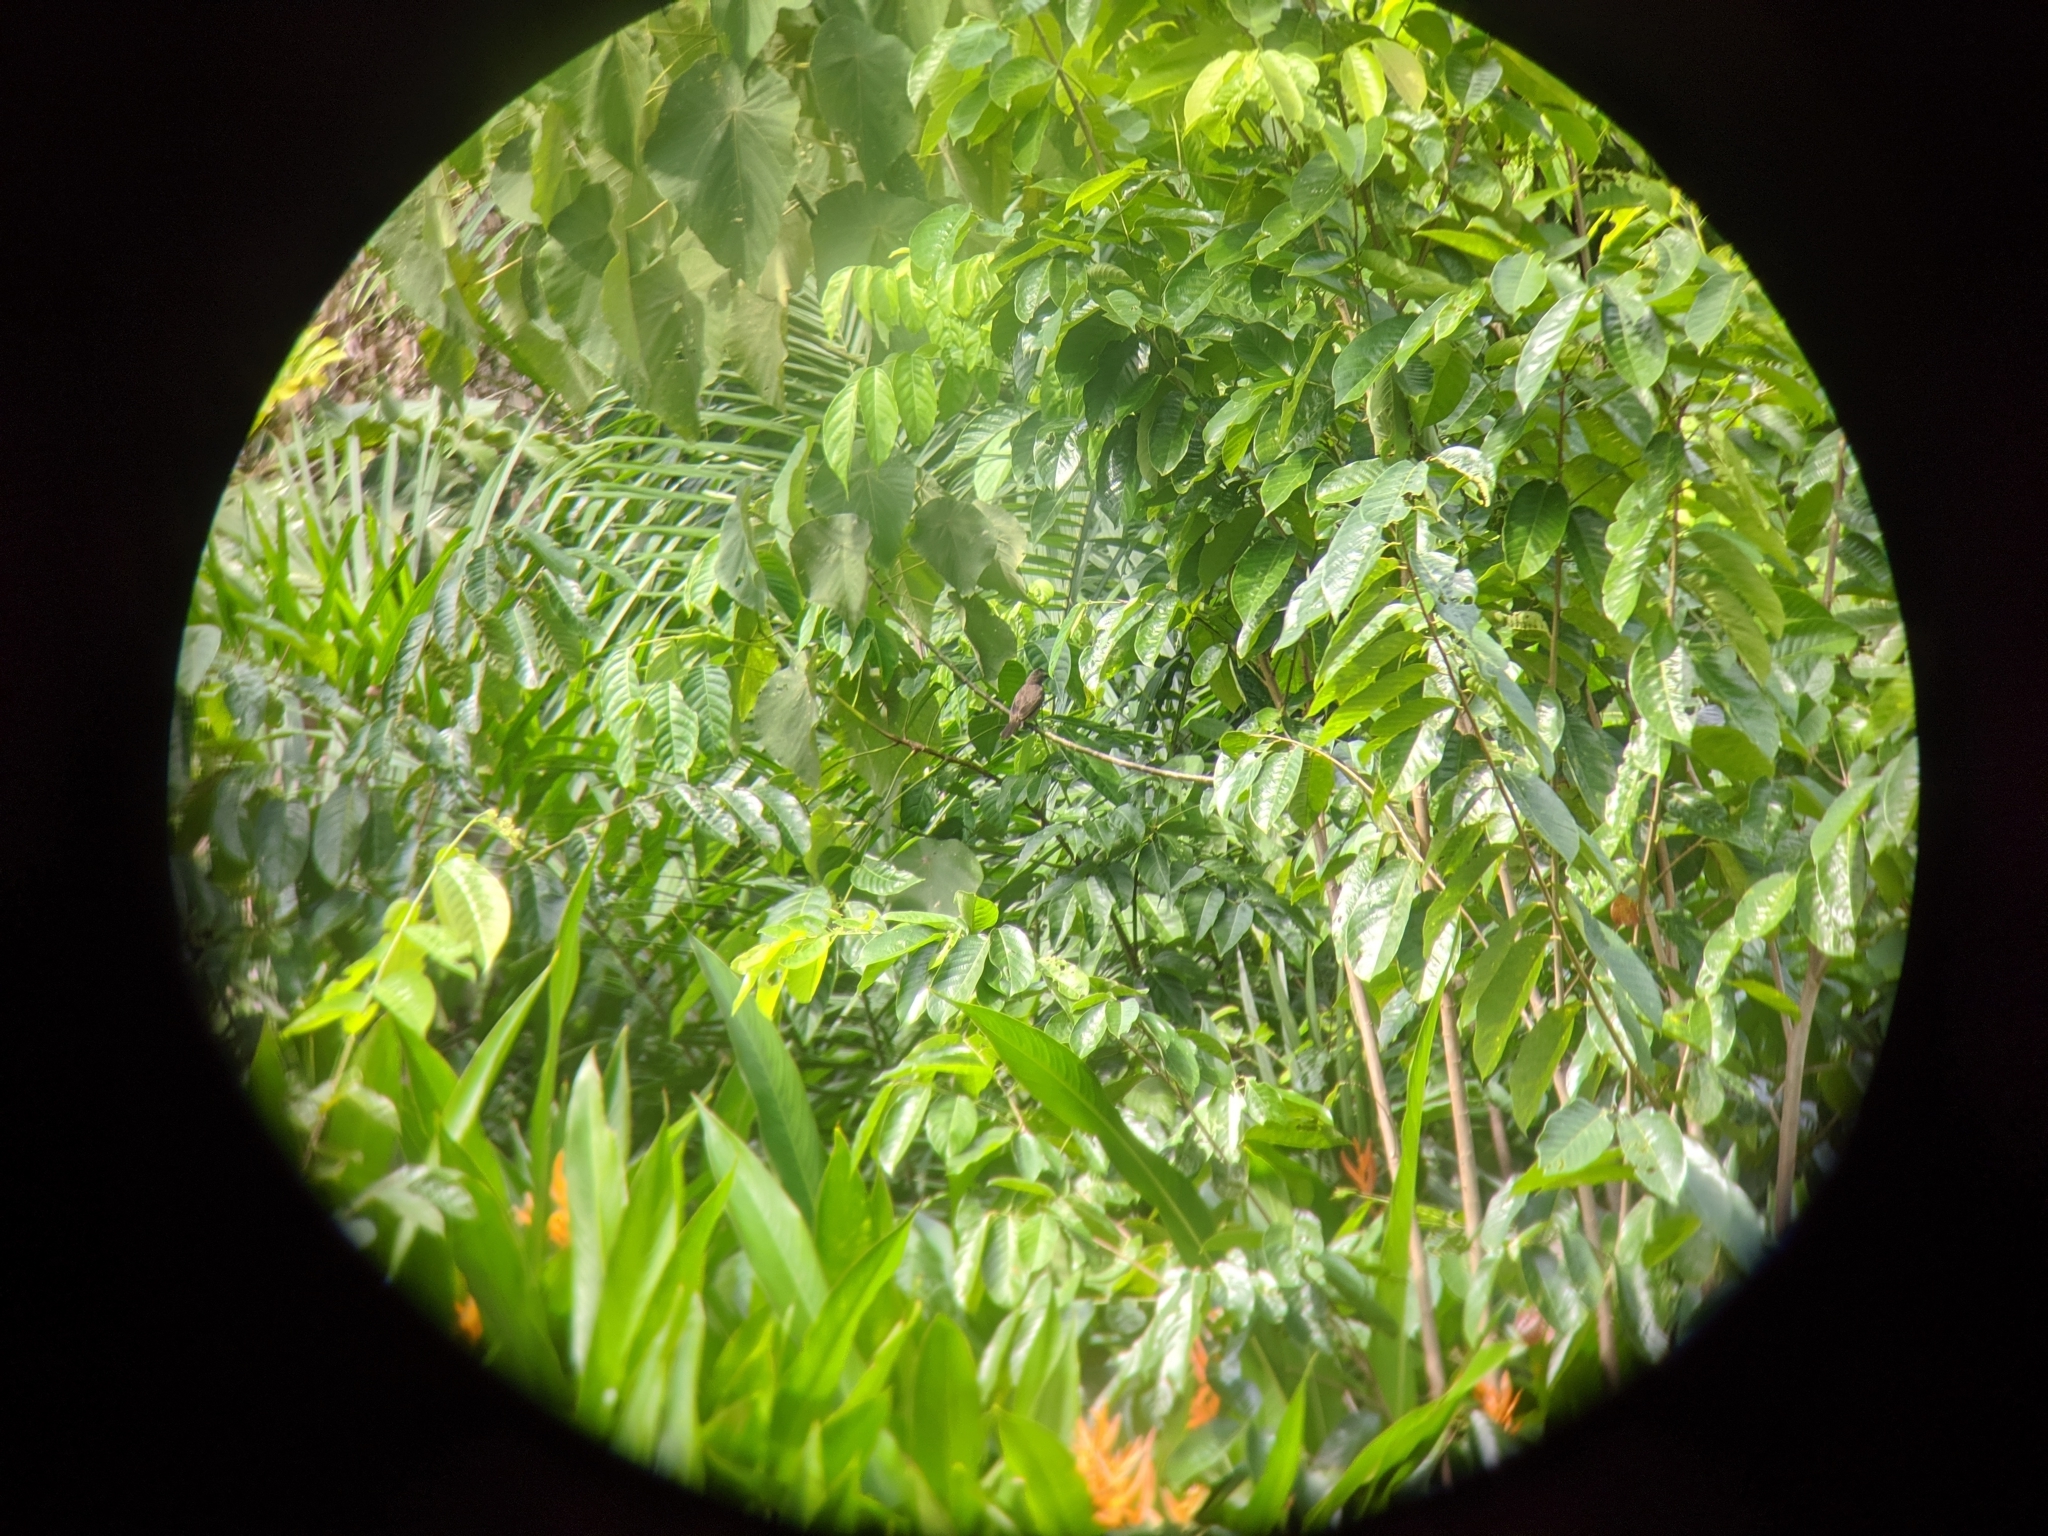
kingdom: Animalia
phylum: Chordata
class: Aves
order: Passeriformes
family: Pycnonotidae
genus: Pycnonotus
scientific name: Pycnonotus goiavier
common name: Yellow-vented bulbul
